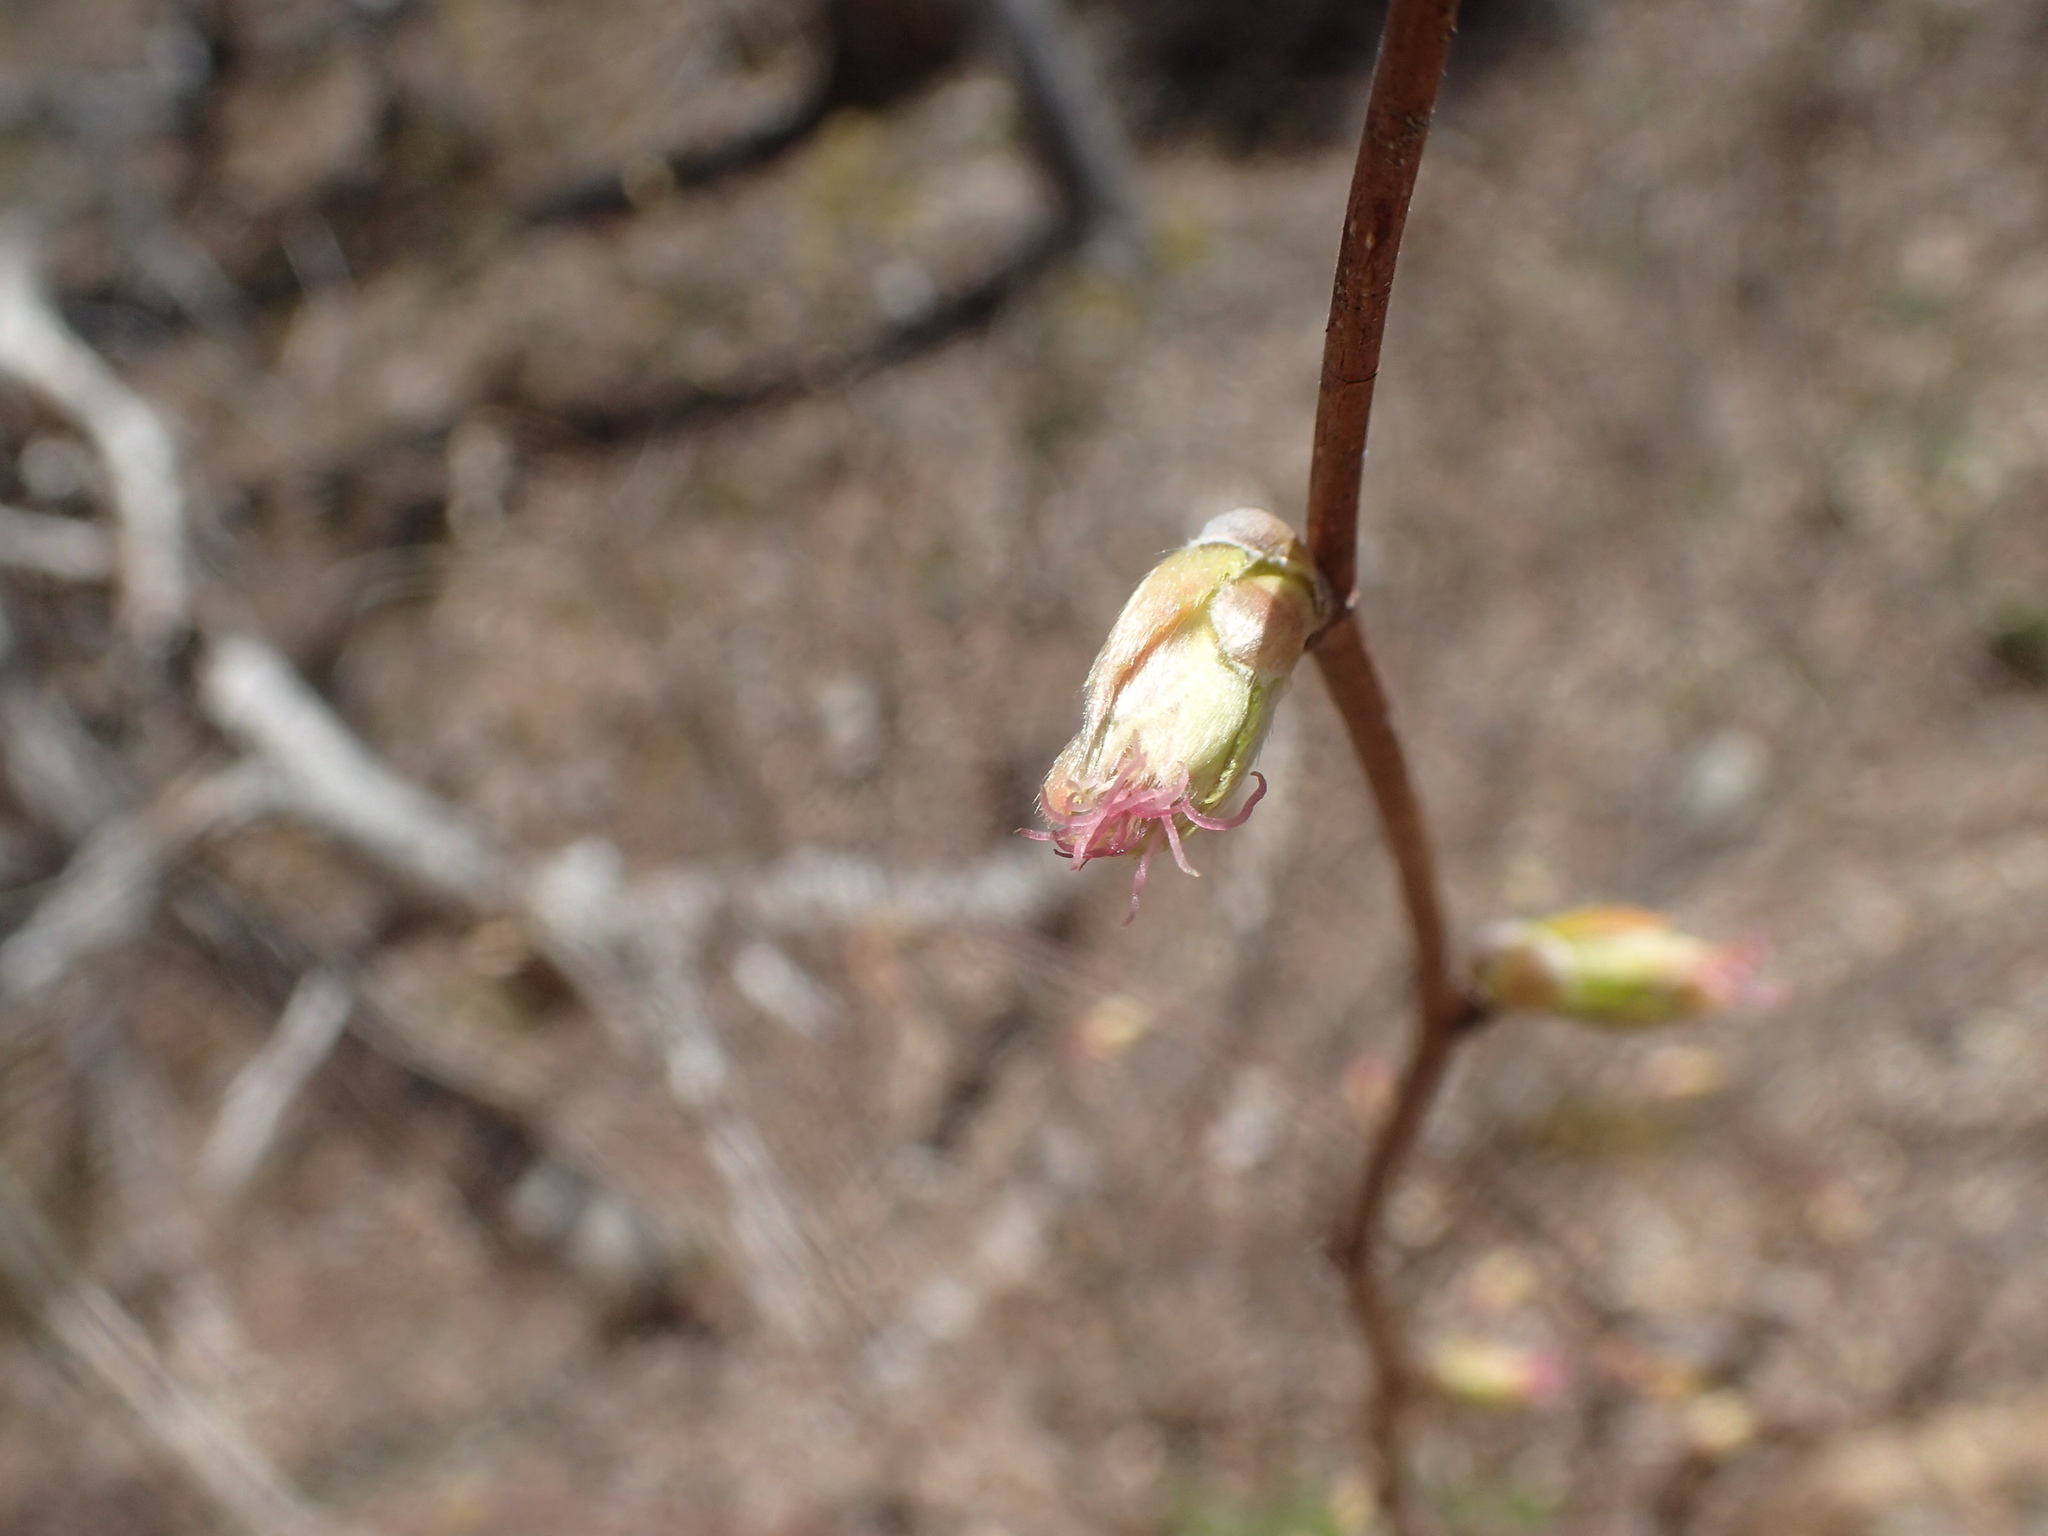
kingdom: Plantae
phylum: Tracheophyta
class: Magnoliopsida
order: Fagales
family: Betulaceae
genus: Corylus
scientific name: Corylus cornuta
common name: Beaked hazel
